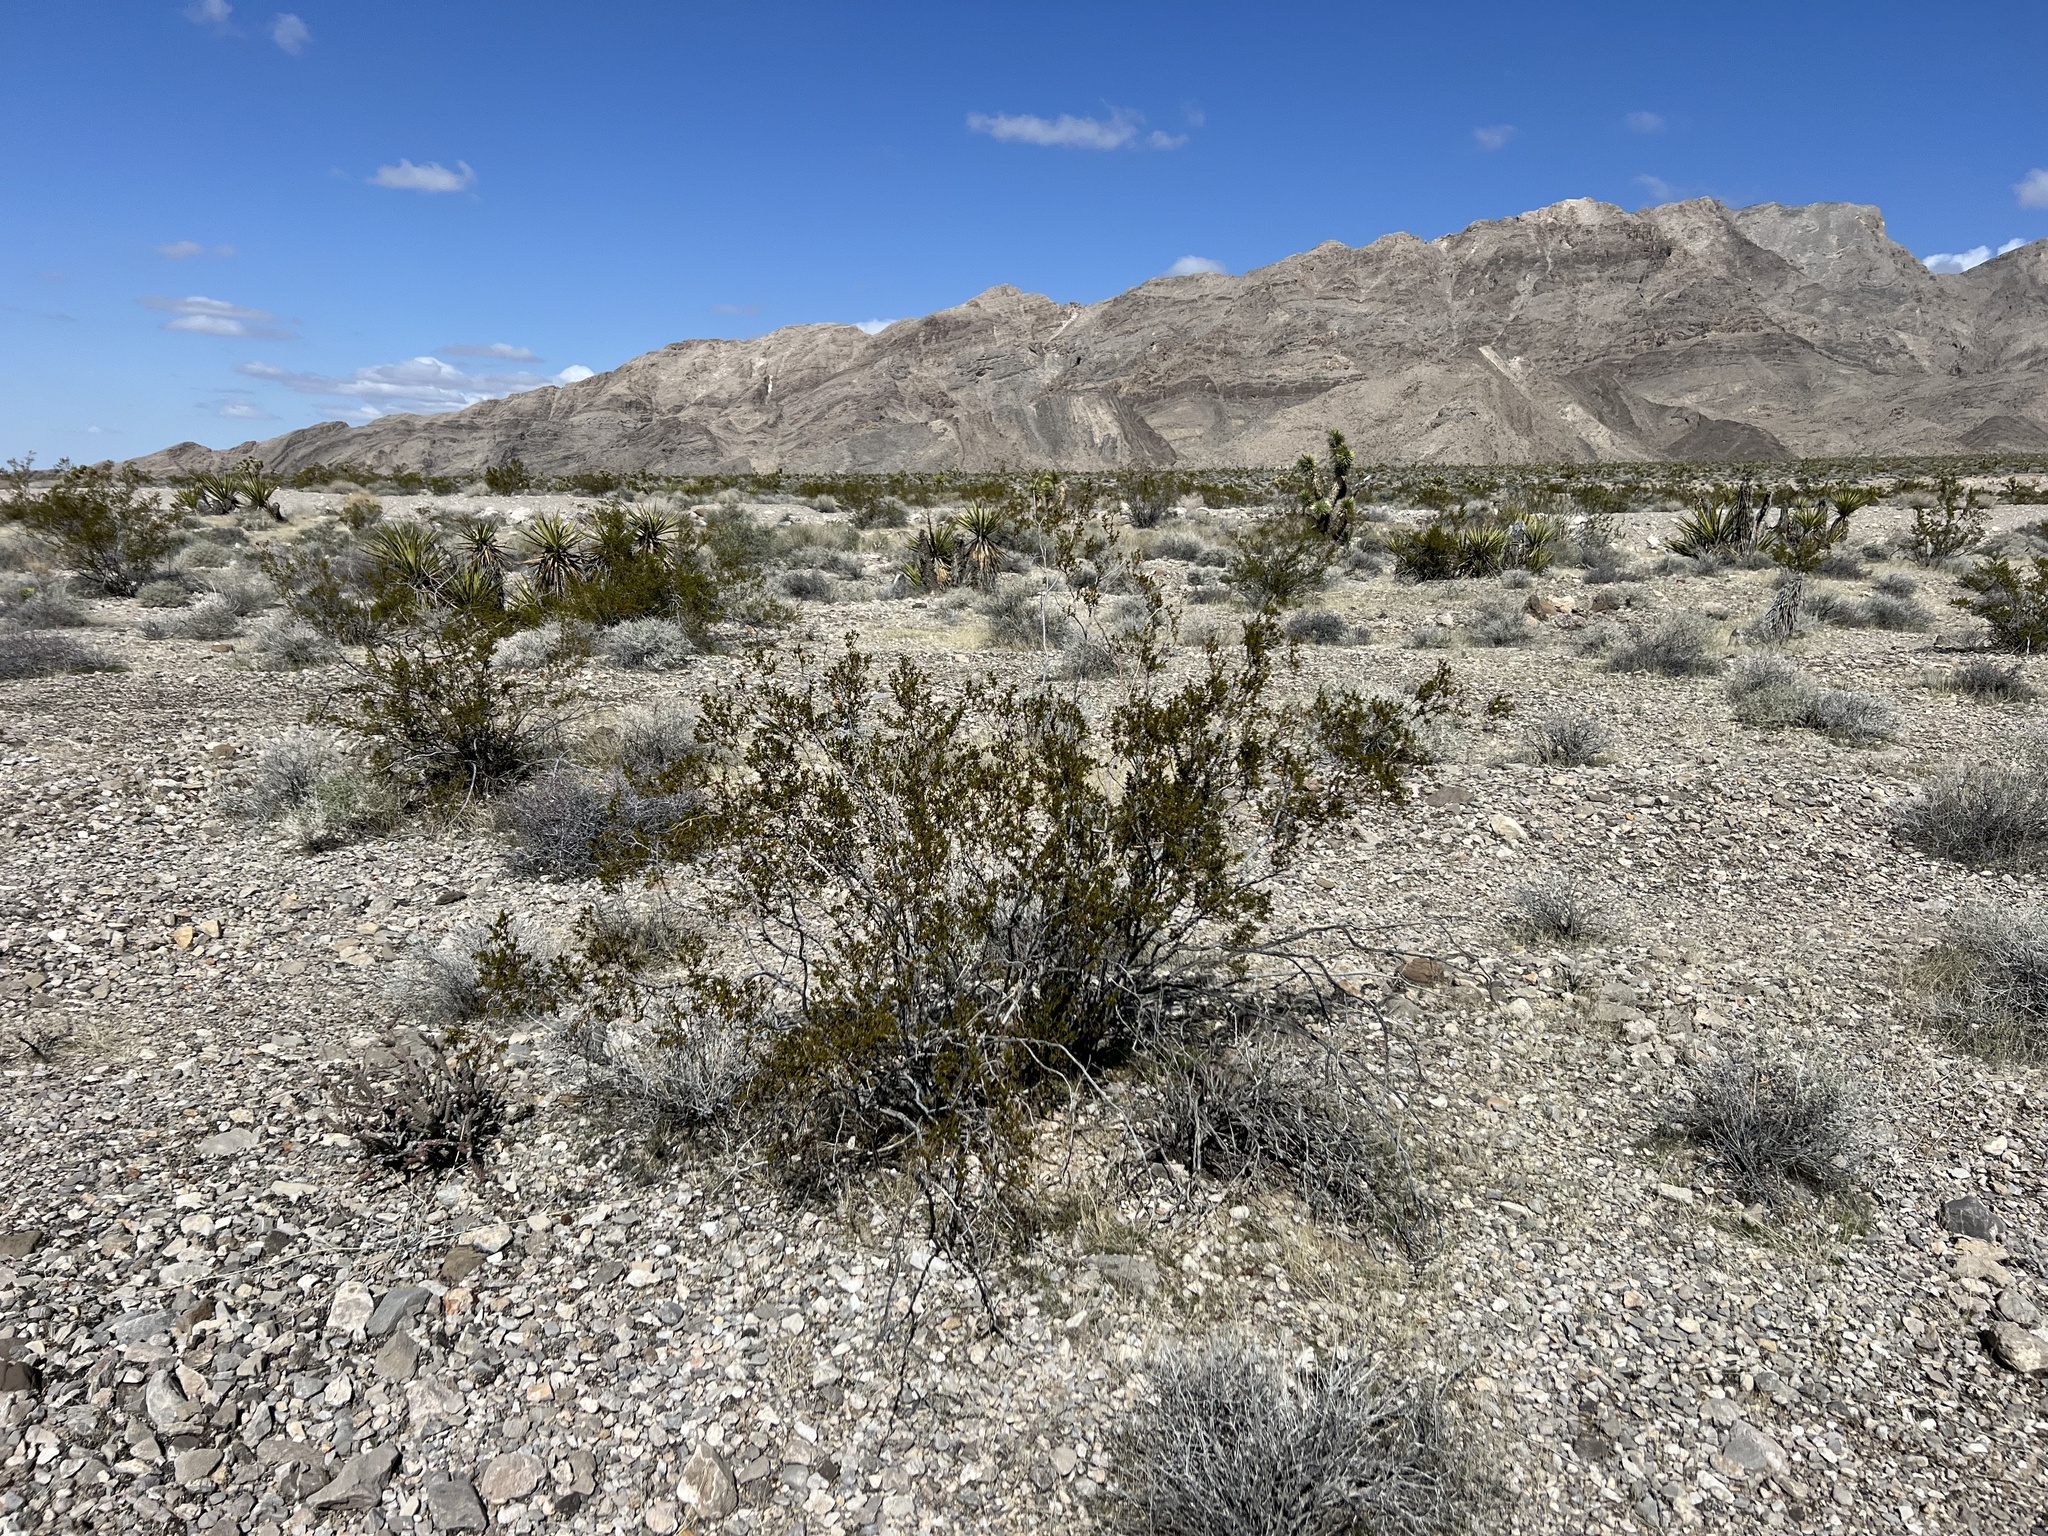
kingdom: Plantae
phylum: Tracheophyta
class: Magnoliopsida
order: Zygophyllales
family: Zygophyllaceae
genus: Larrea
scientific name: Larrea tridentata
